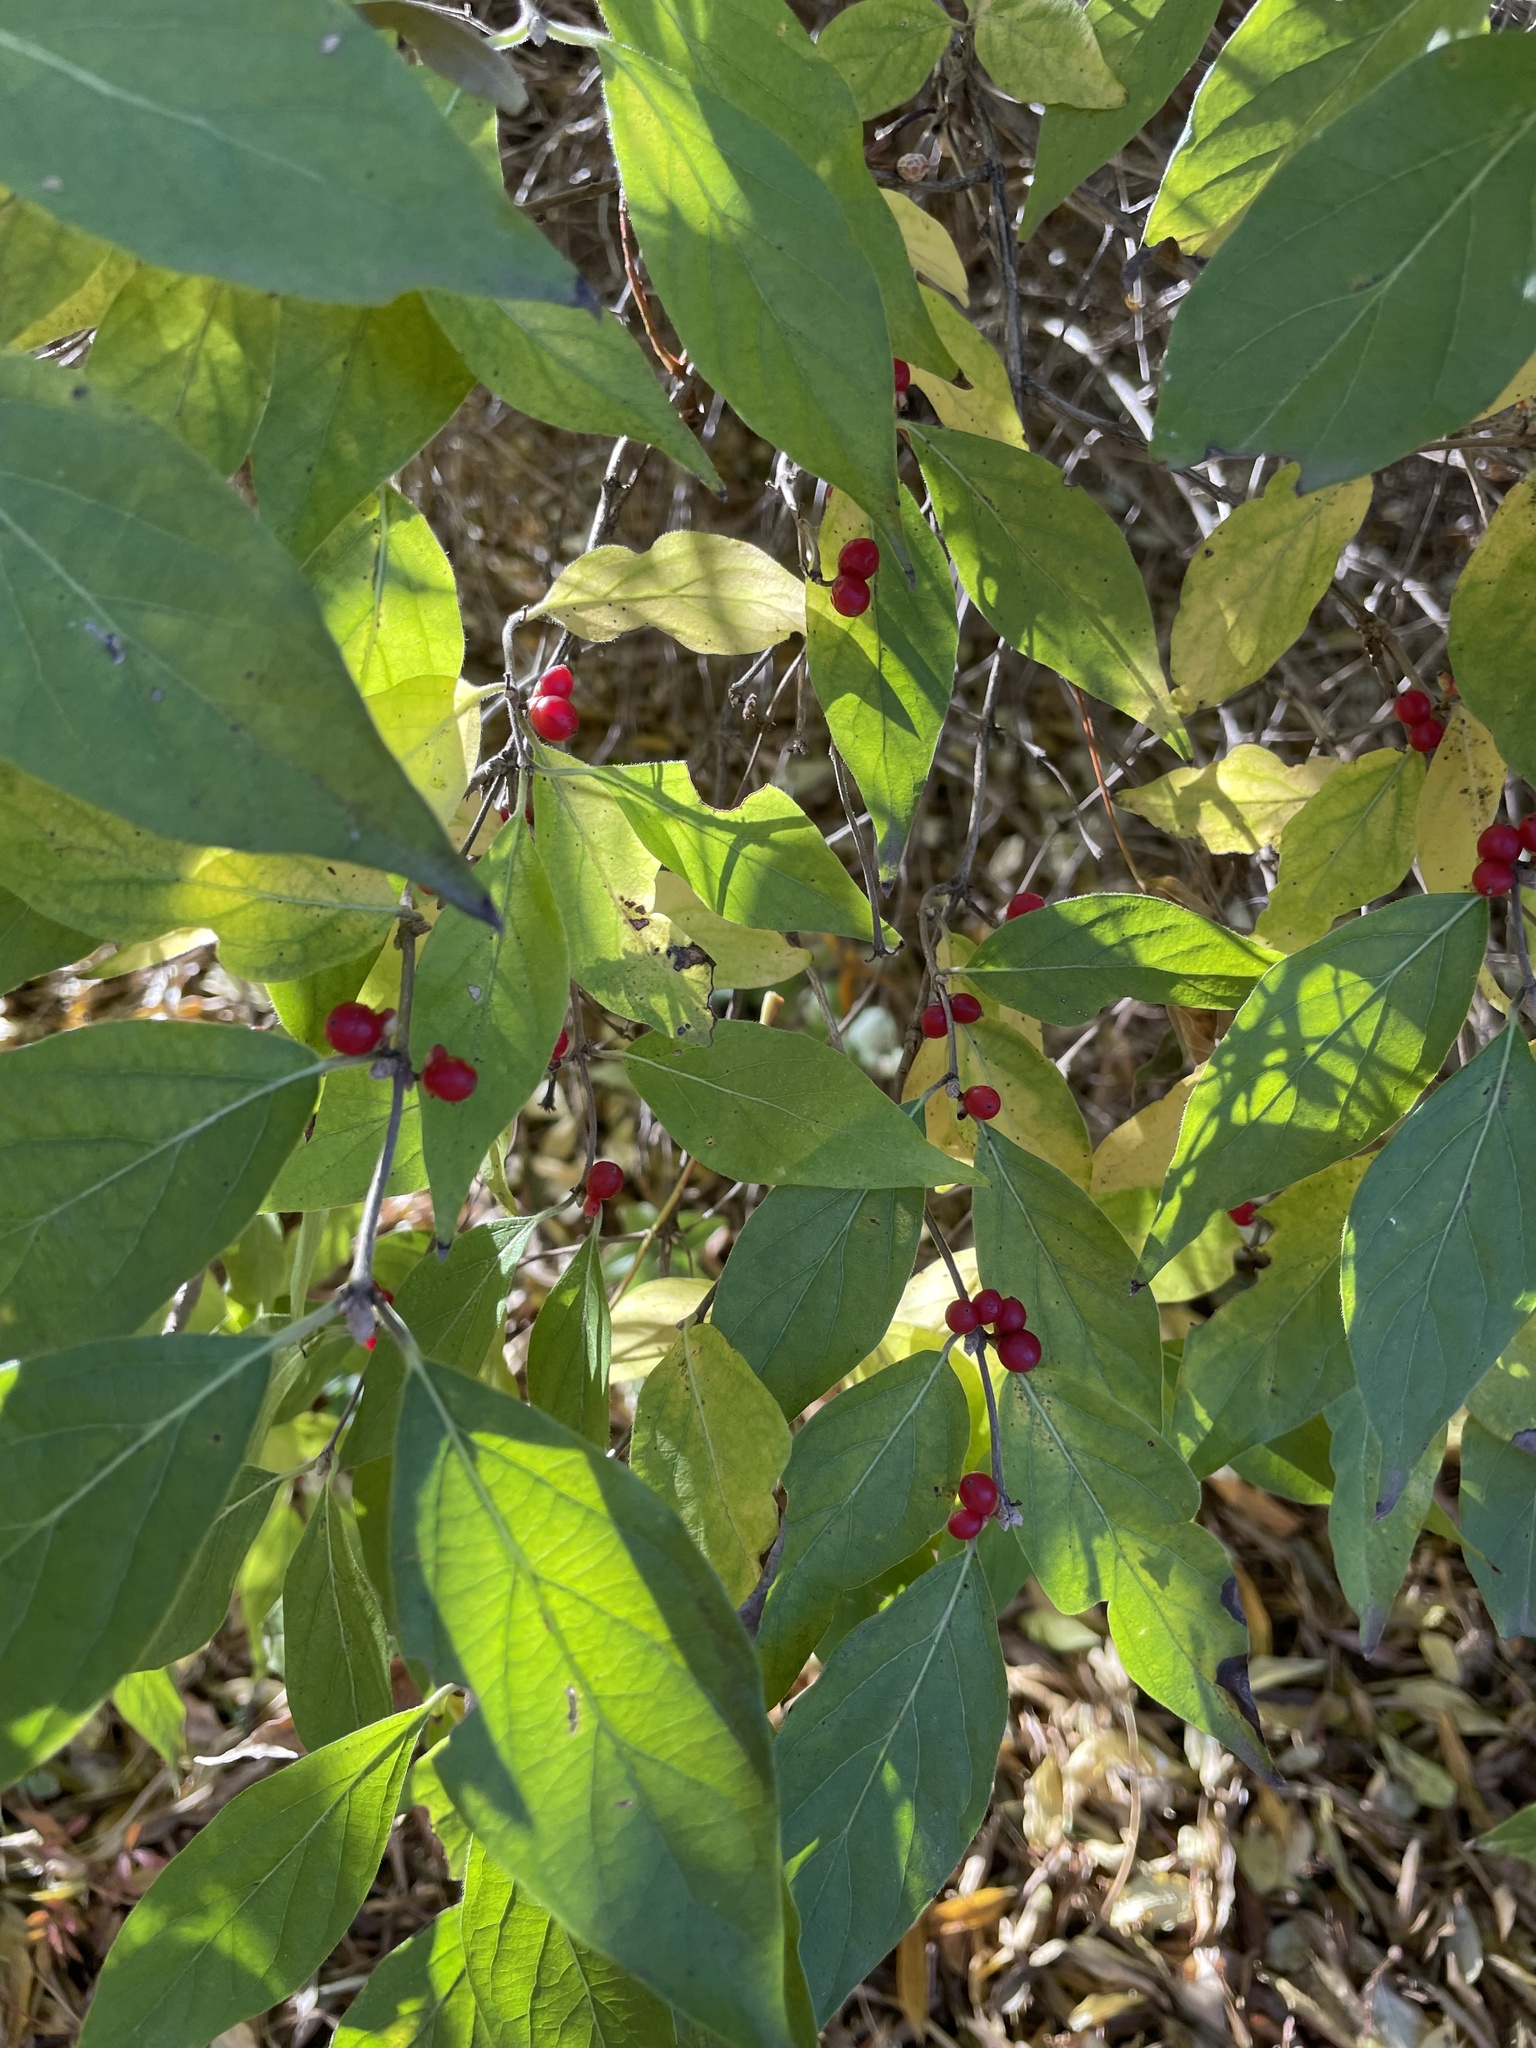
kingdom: Plantae
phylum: Tracheophyta
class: Magnoliopsida
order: Dipsacales
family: Caprifoliaceae
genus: Lonicera
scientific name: Lonicera maackii
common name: Amur honeysuckle
